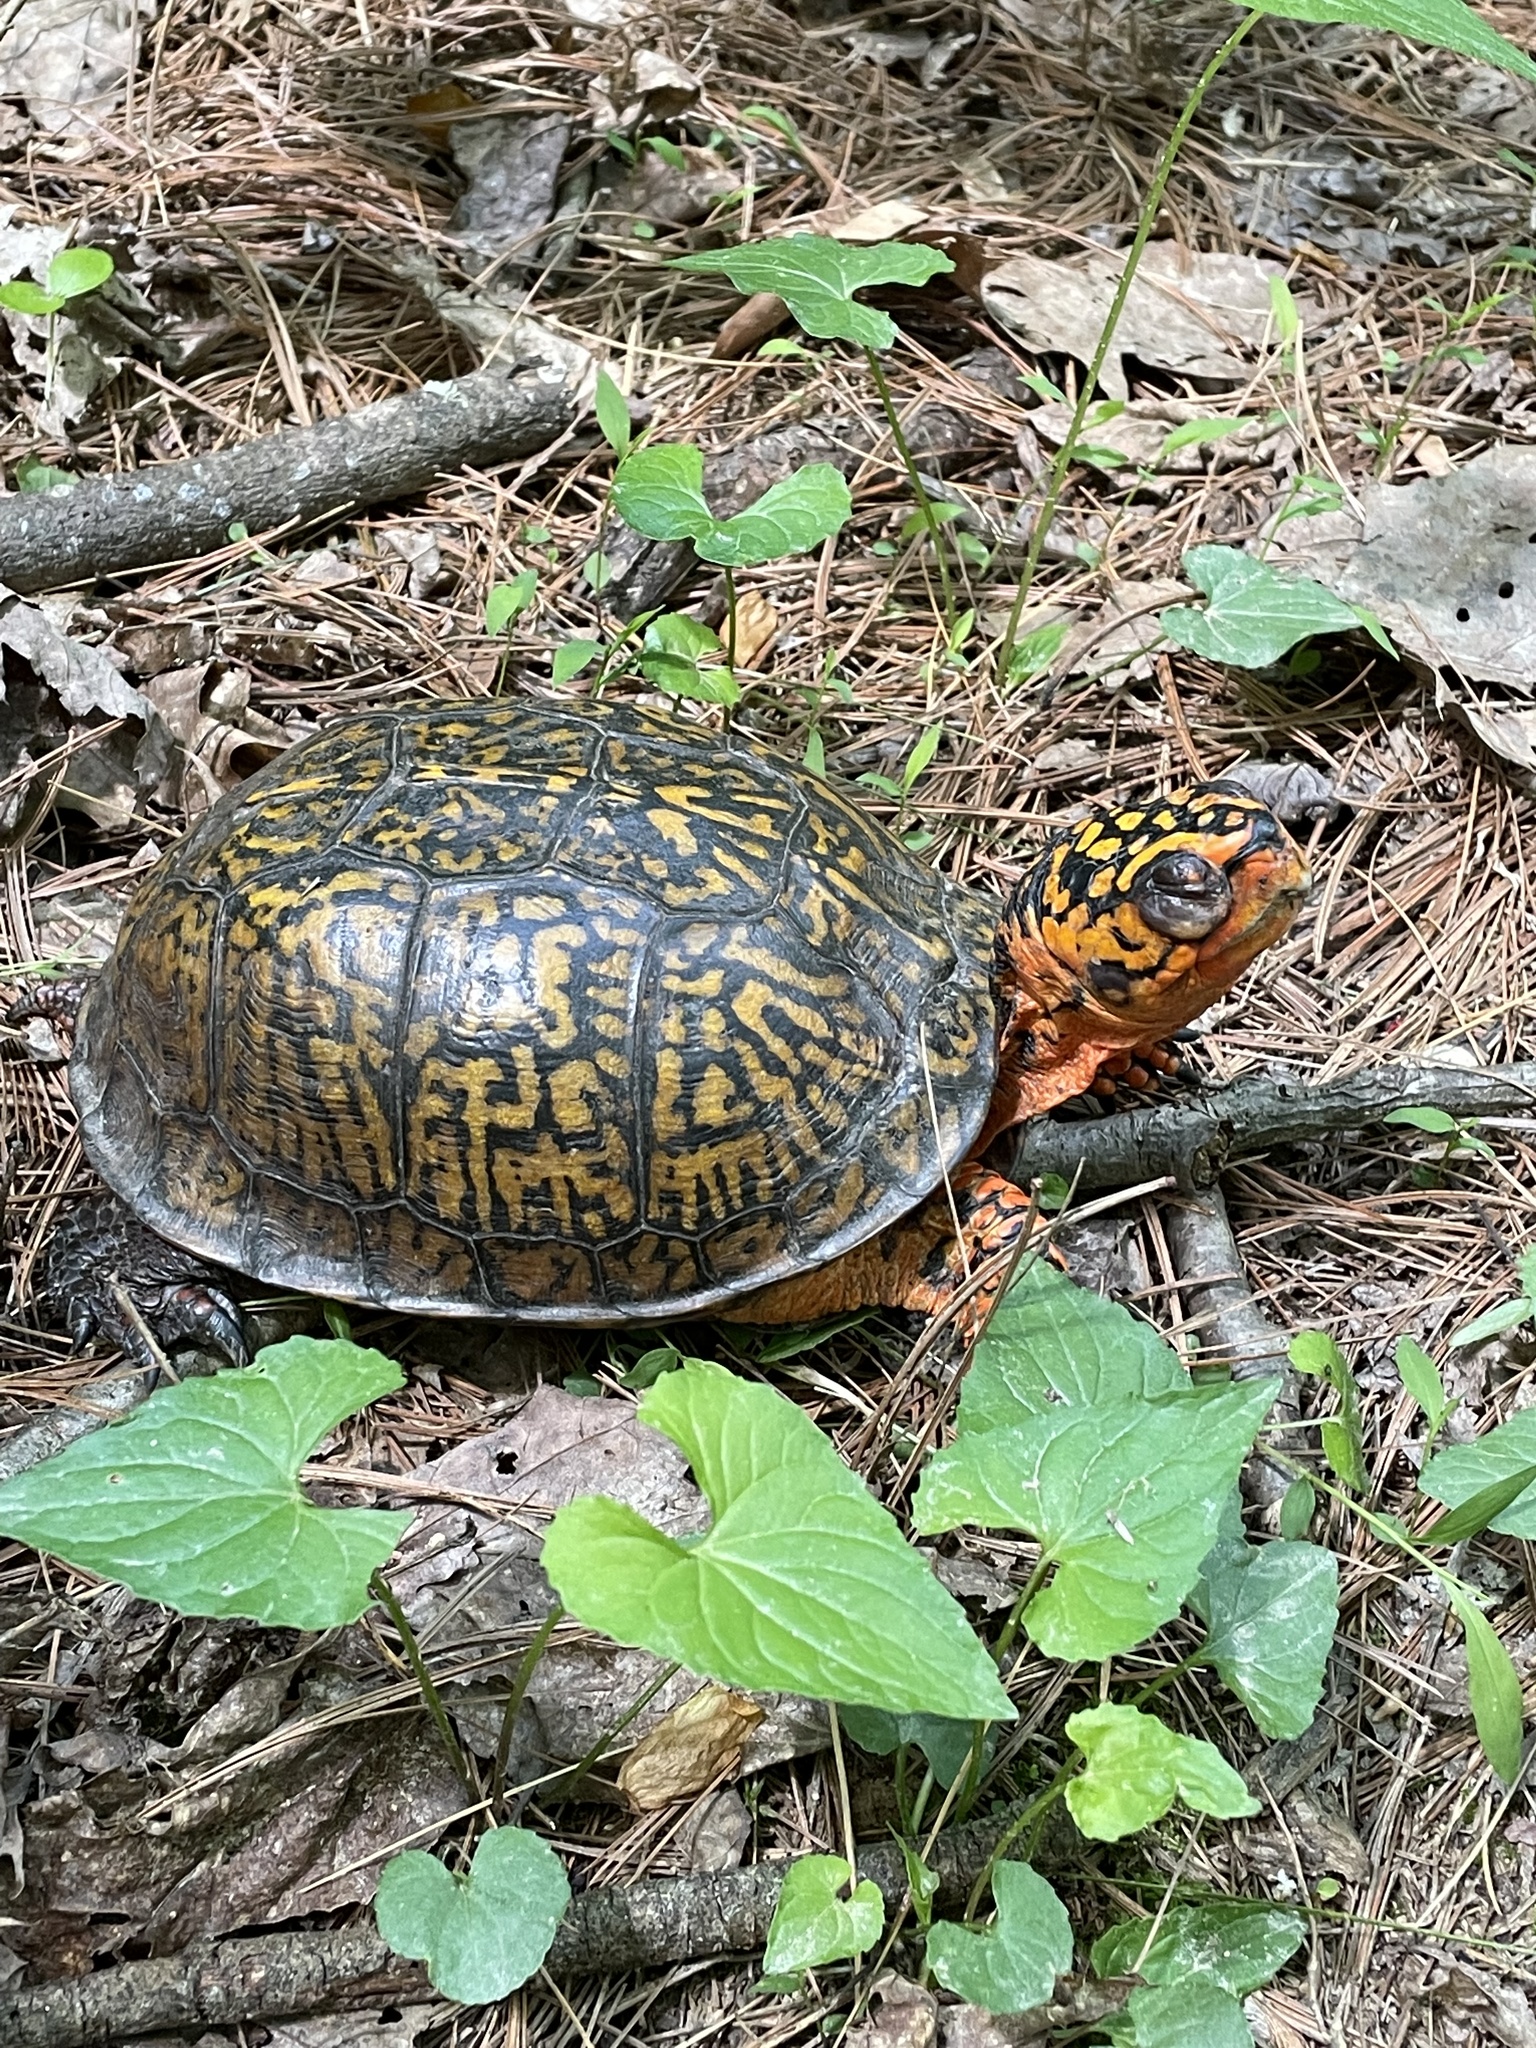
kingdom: Animalia
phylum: Chordata
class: Testudines
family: Emydidae
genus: Terrapene
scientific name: Terrapene carolina
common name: Common box turtle
